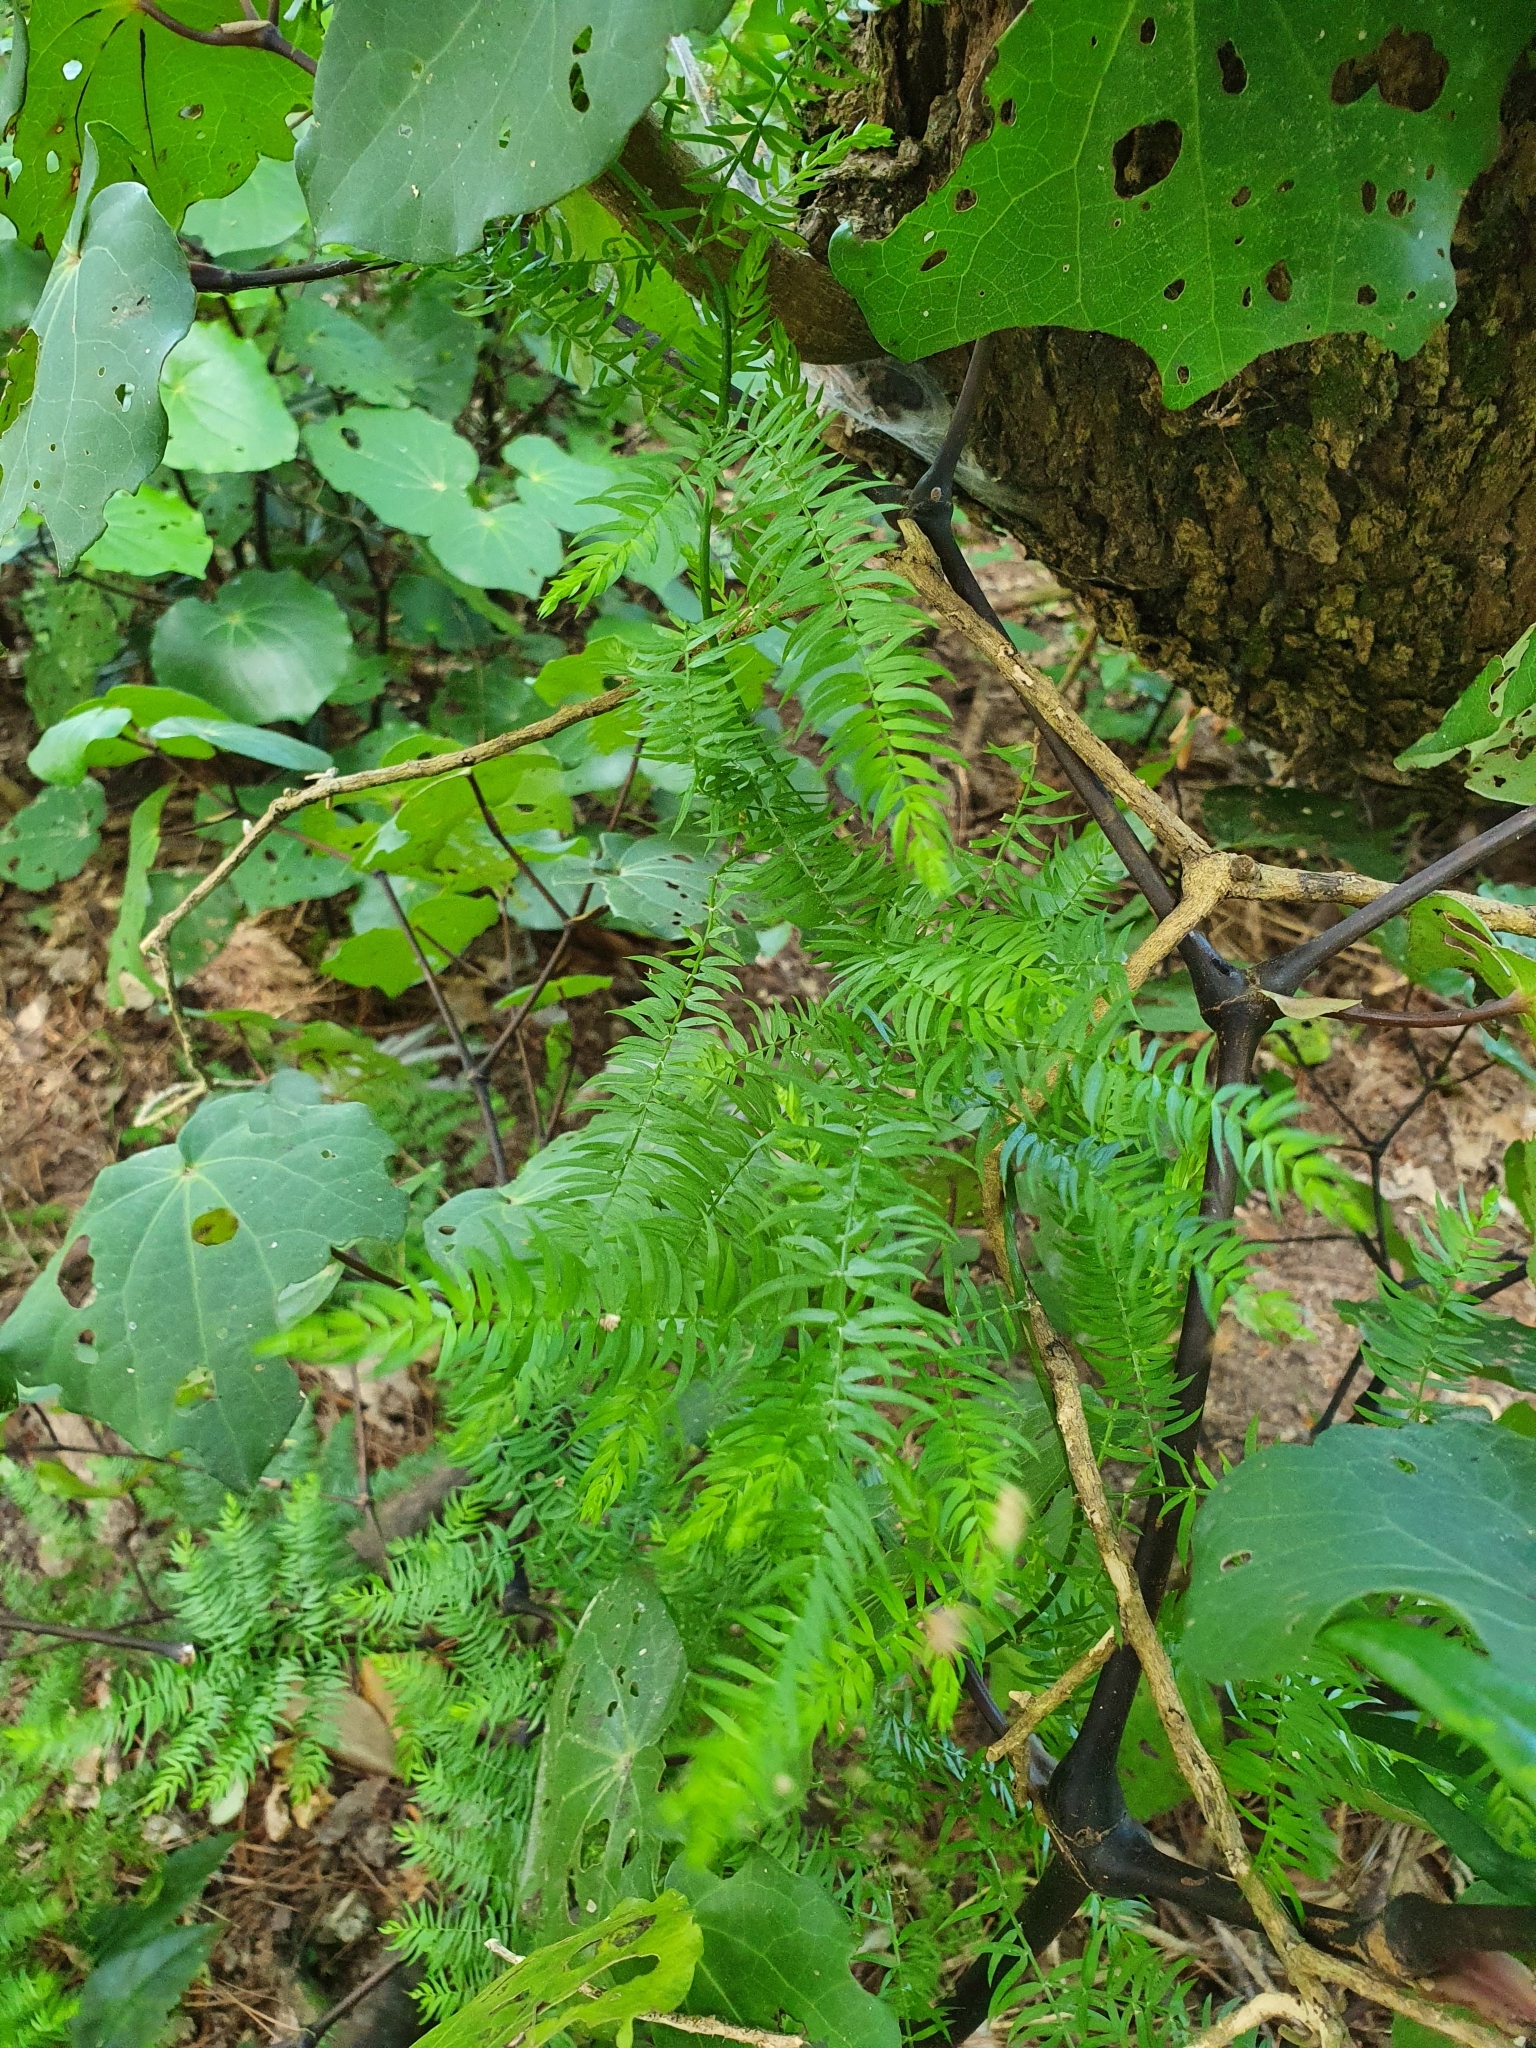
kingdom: Plantae
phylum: Tracheophyta
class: Liliopsida
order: Asparagales
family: Asparagaceae
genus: Asparagus
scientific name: Asparagus scandens
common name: Asparagus-fern
